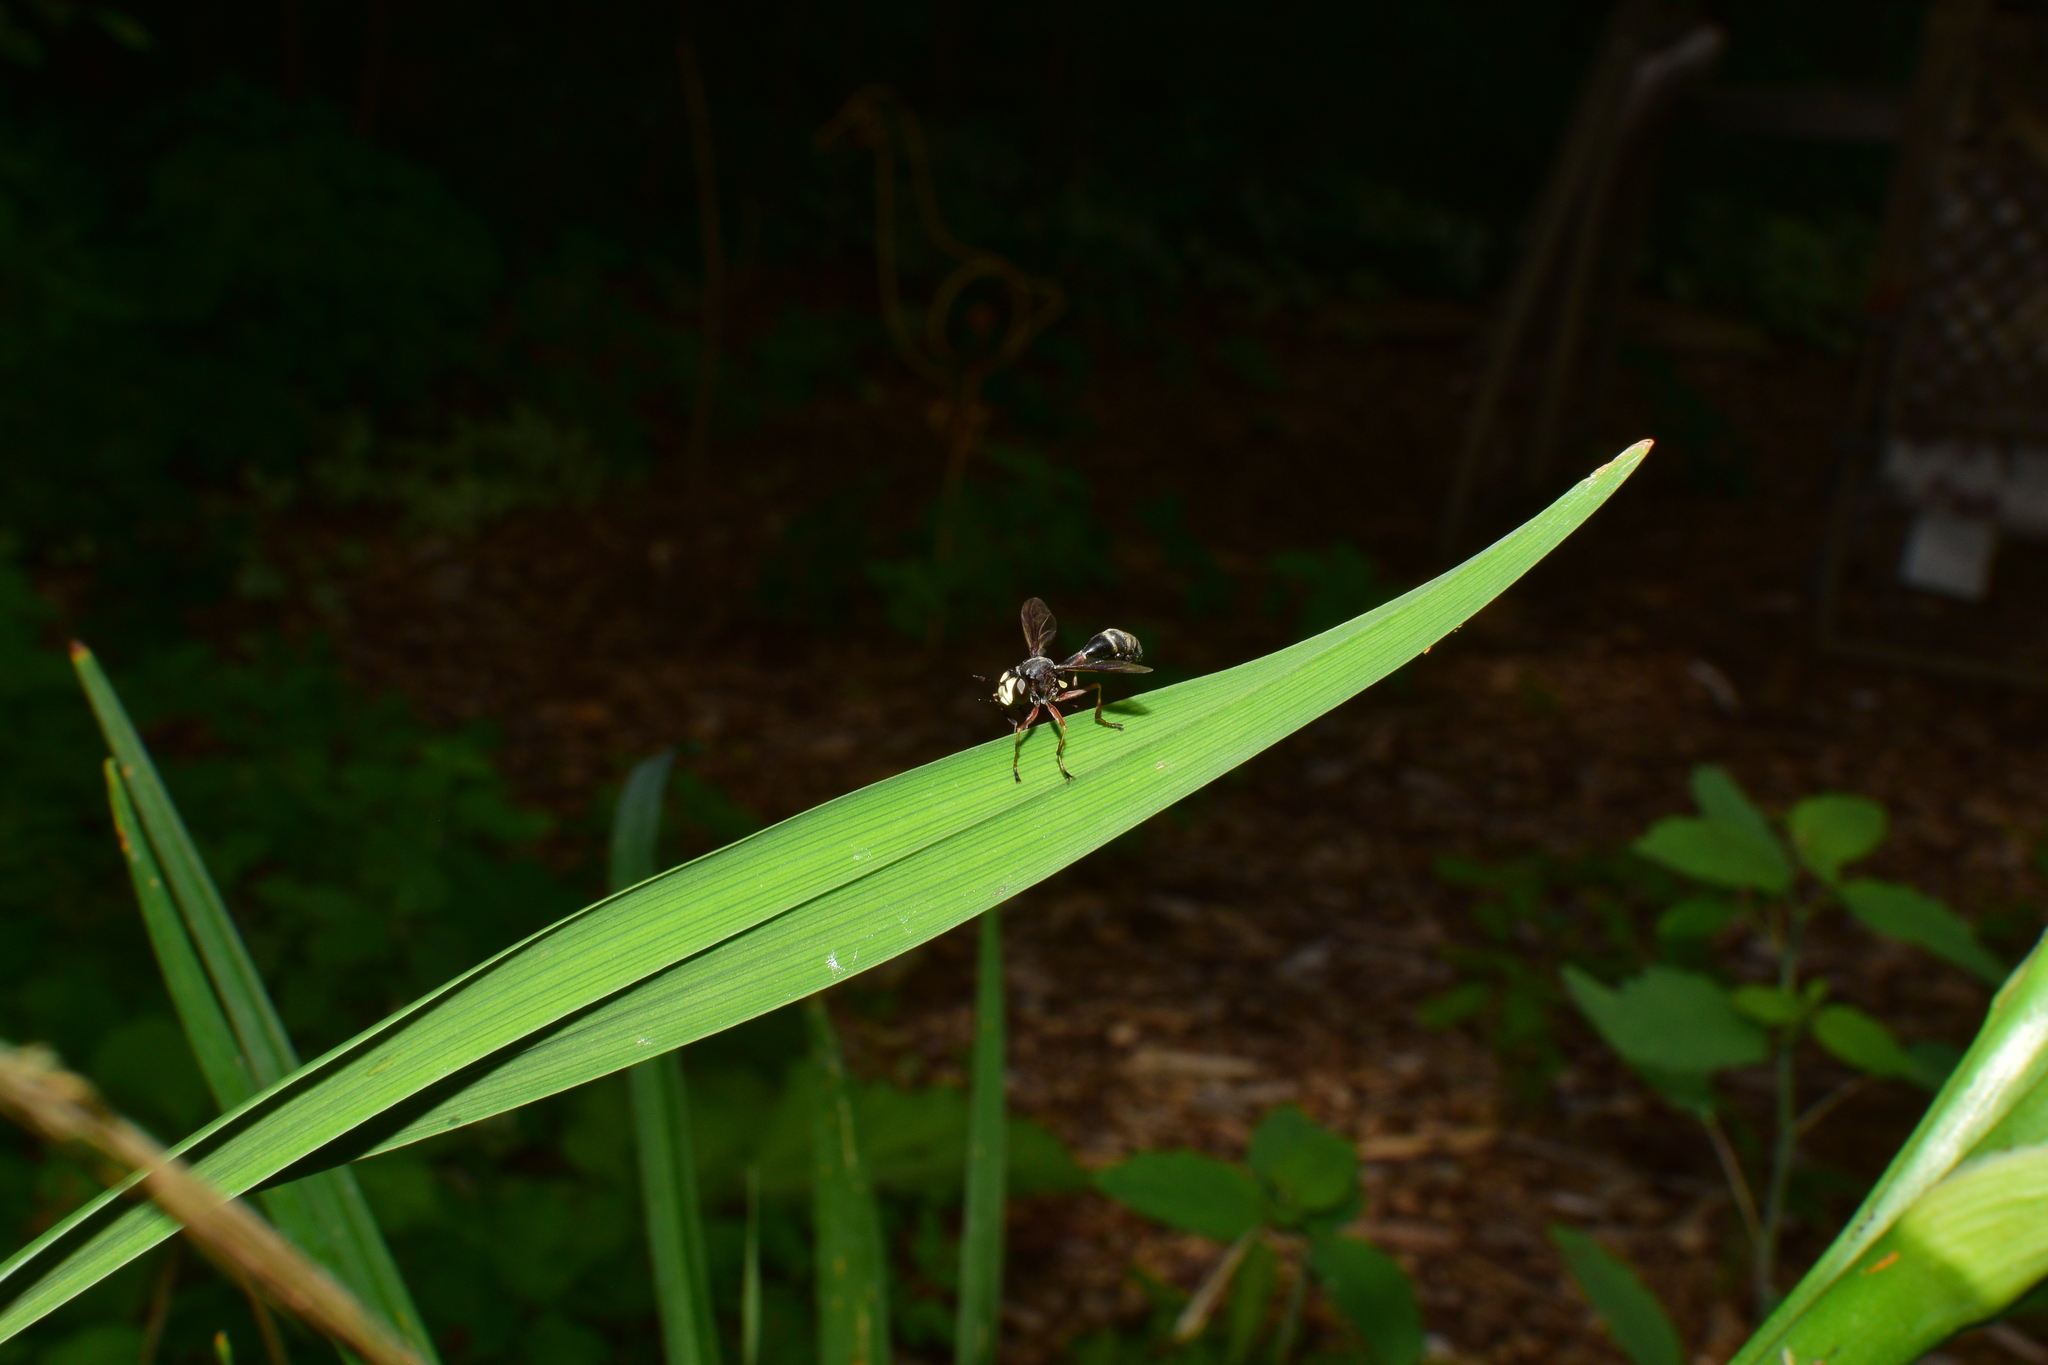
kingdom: Animalia
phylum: Arthropoda
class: Insecta
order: Diptera
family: Conopidae
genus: Physocephala
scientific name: Physocephala furcillata
